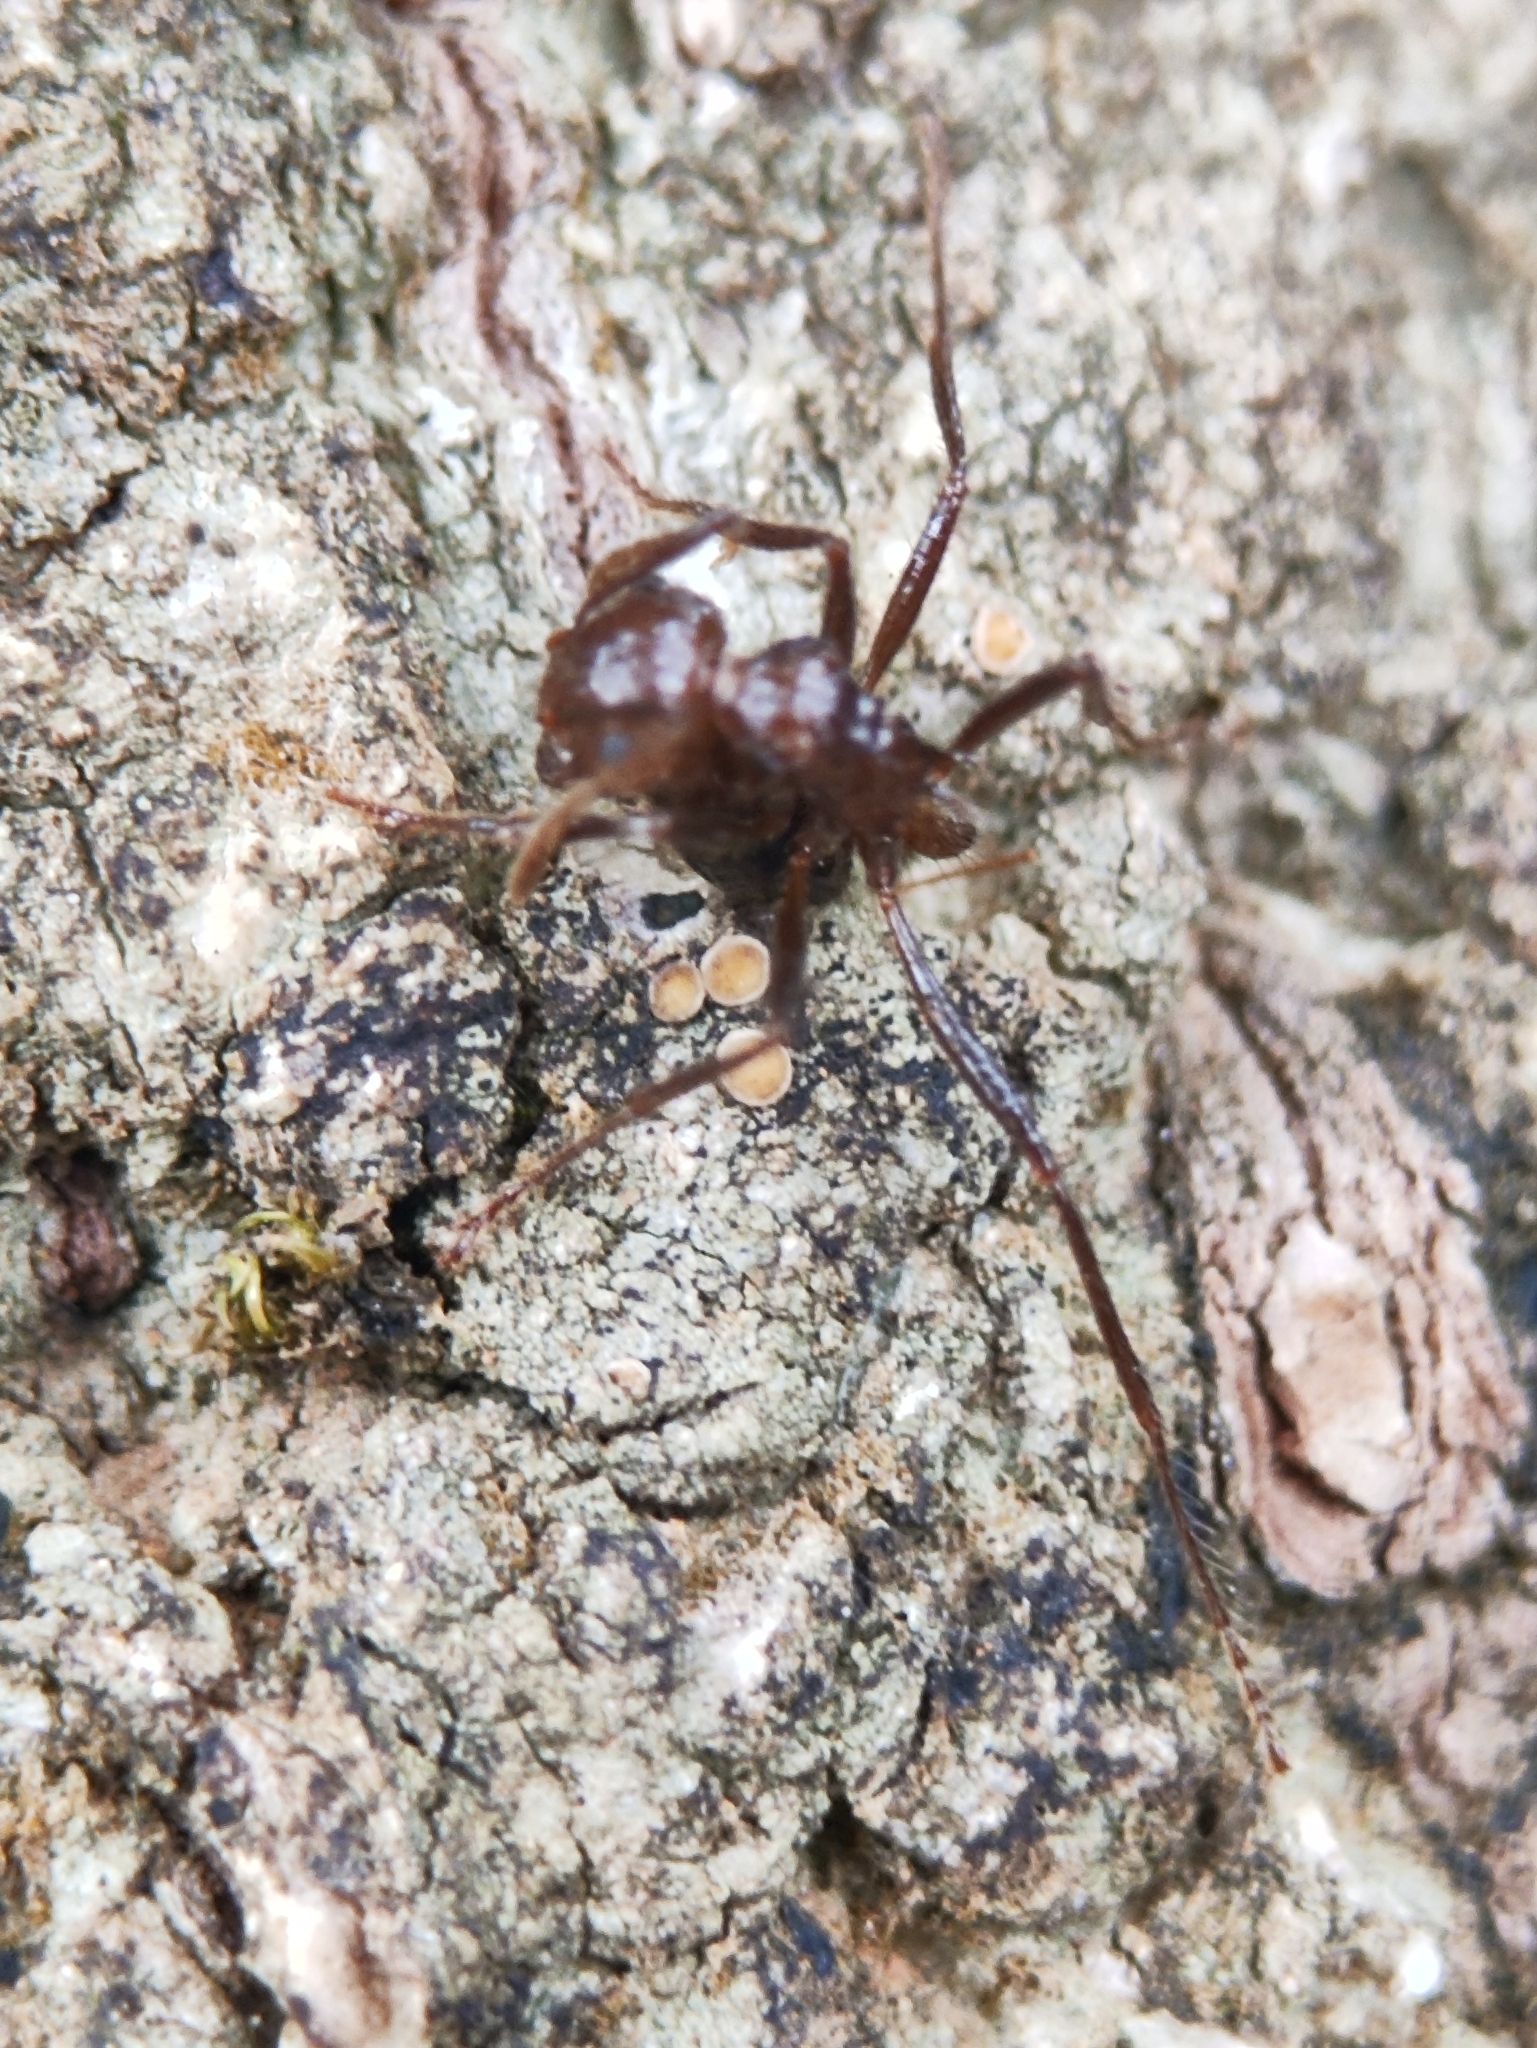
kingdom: Animalia
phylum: Arthropoda
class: Insecta
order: Hymenoptera
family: Formicidae
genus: Myrmicaria
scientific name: Myrmicaria brunnea
